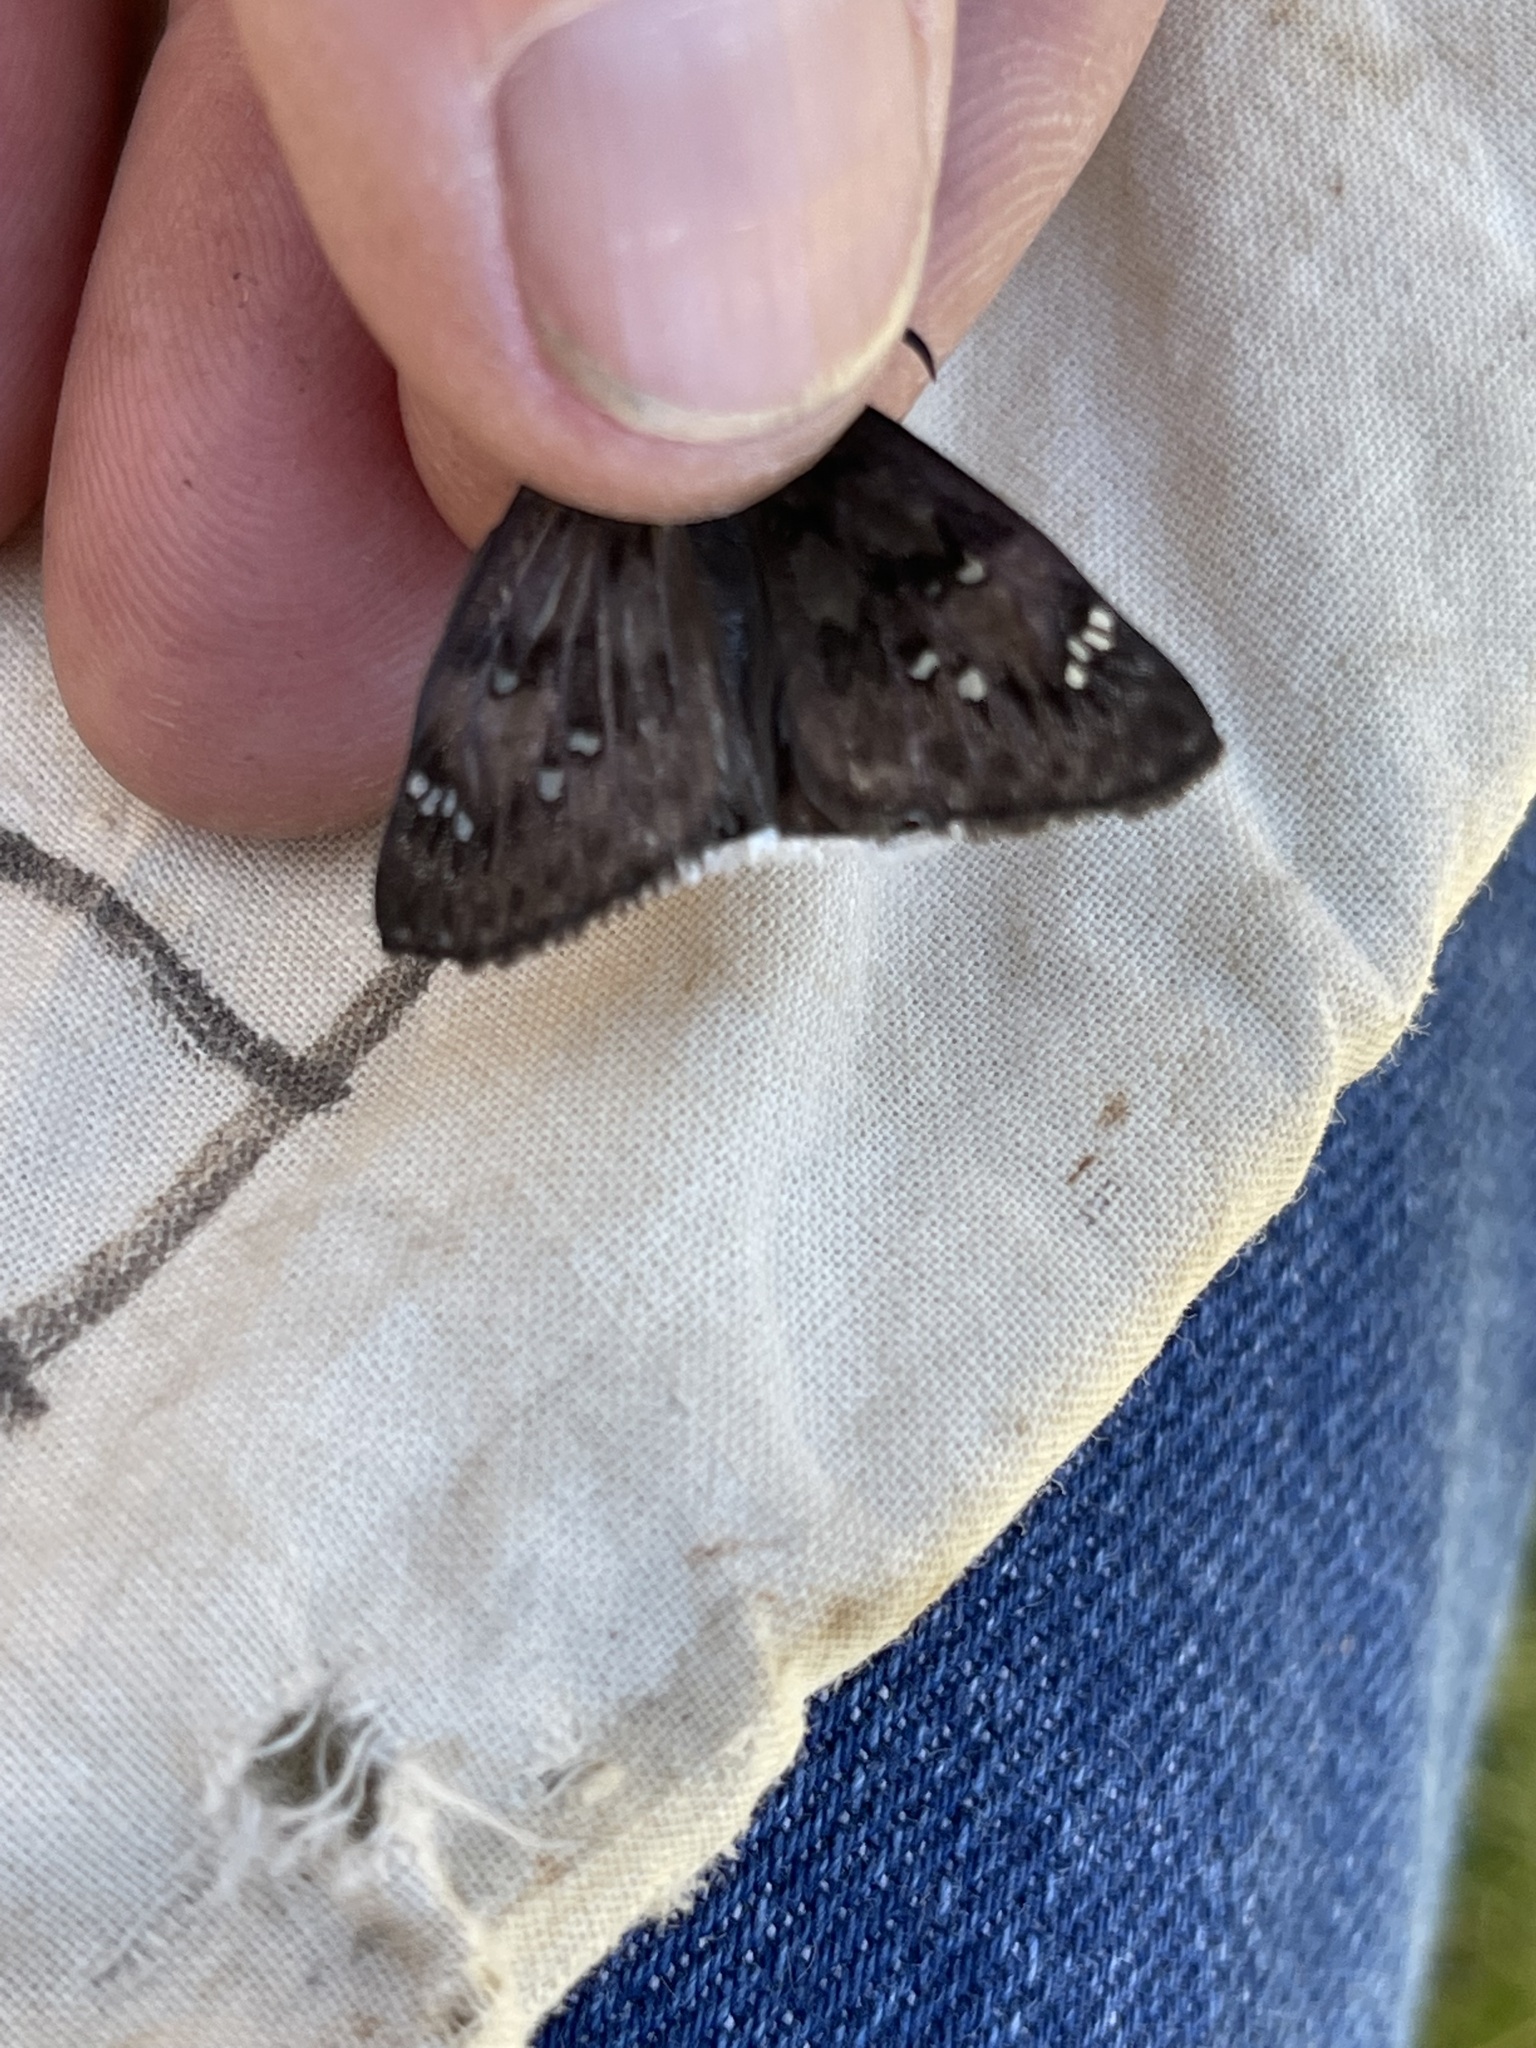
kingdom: Animalia
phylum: Arthropoda
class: Insecta
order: Lepidoptera
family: Hesperiidae
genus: Erynnis
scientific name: Erynnis tristis
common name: Mournful duskywing
